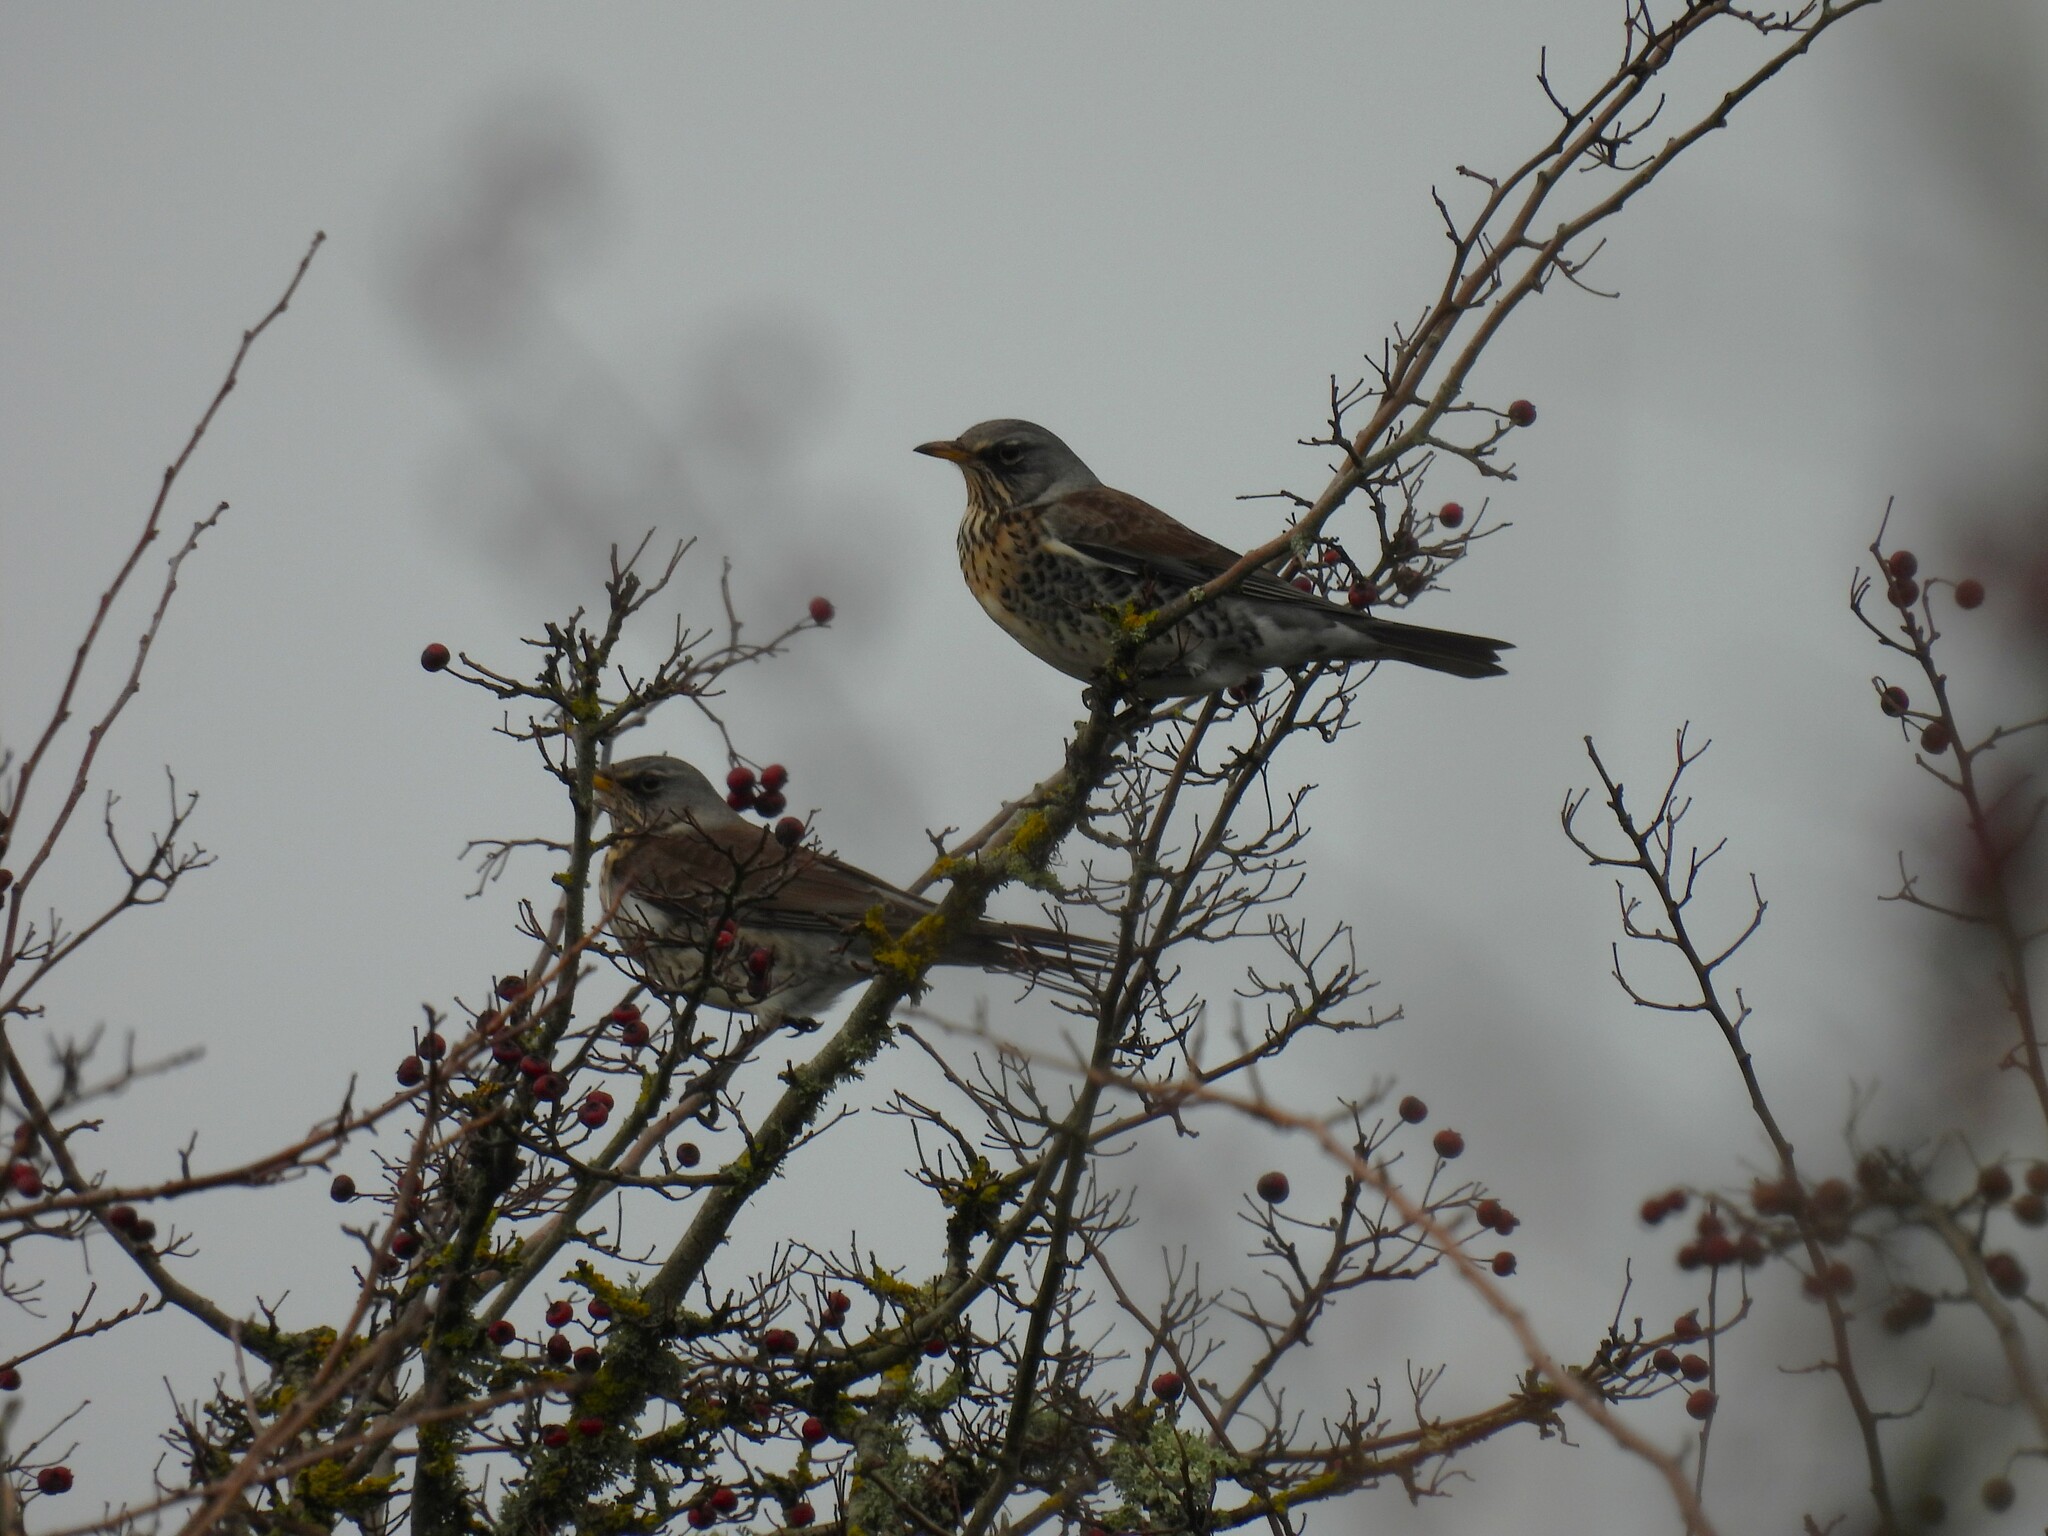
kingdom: Animalia
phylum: Chordata
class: Aves
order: Passeriformes
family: Turdidae
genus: Turdus
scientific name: Turdus pilaris
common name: Fieldfare
